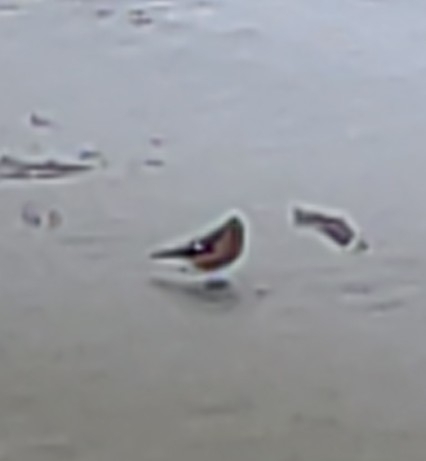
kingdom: Animalia
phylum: Chordata
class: Aves
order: Passeriformes
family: Fringillidae
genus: Fringilla
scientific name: Fringilla coelebs
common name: Common chaffinch
